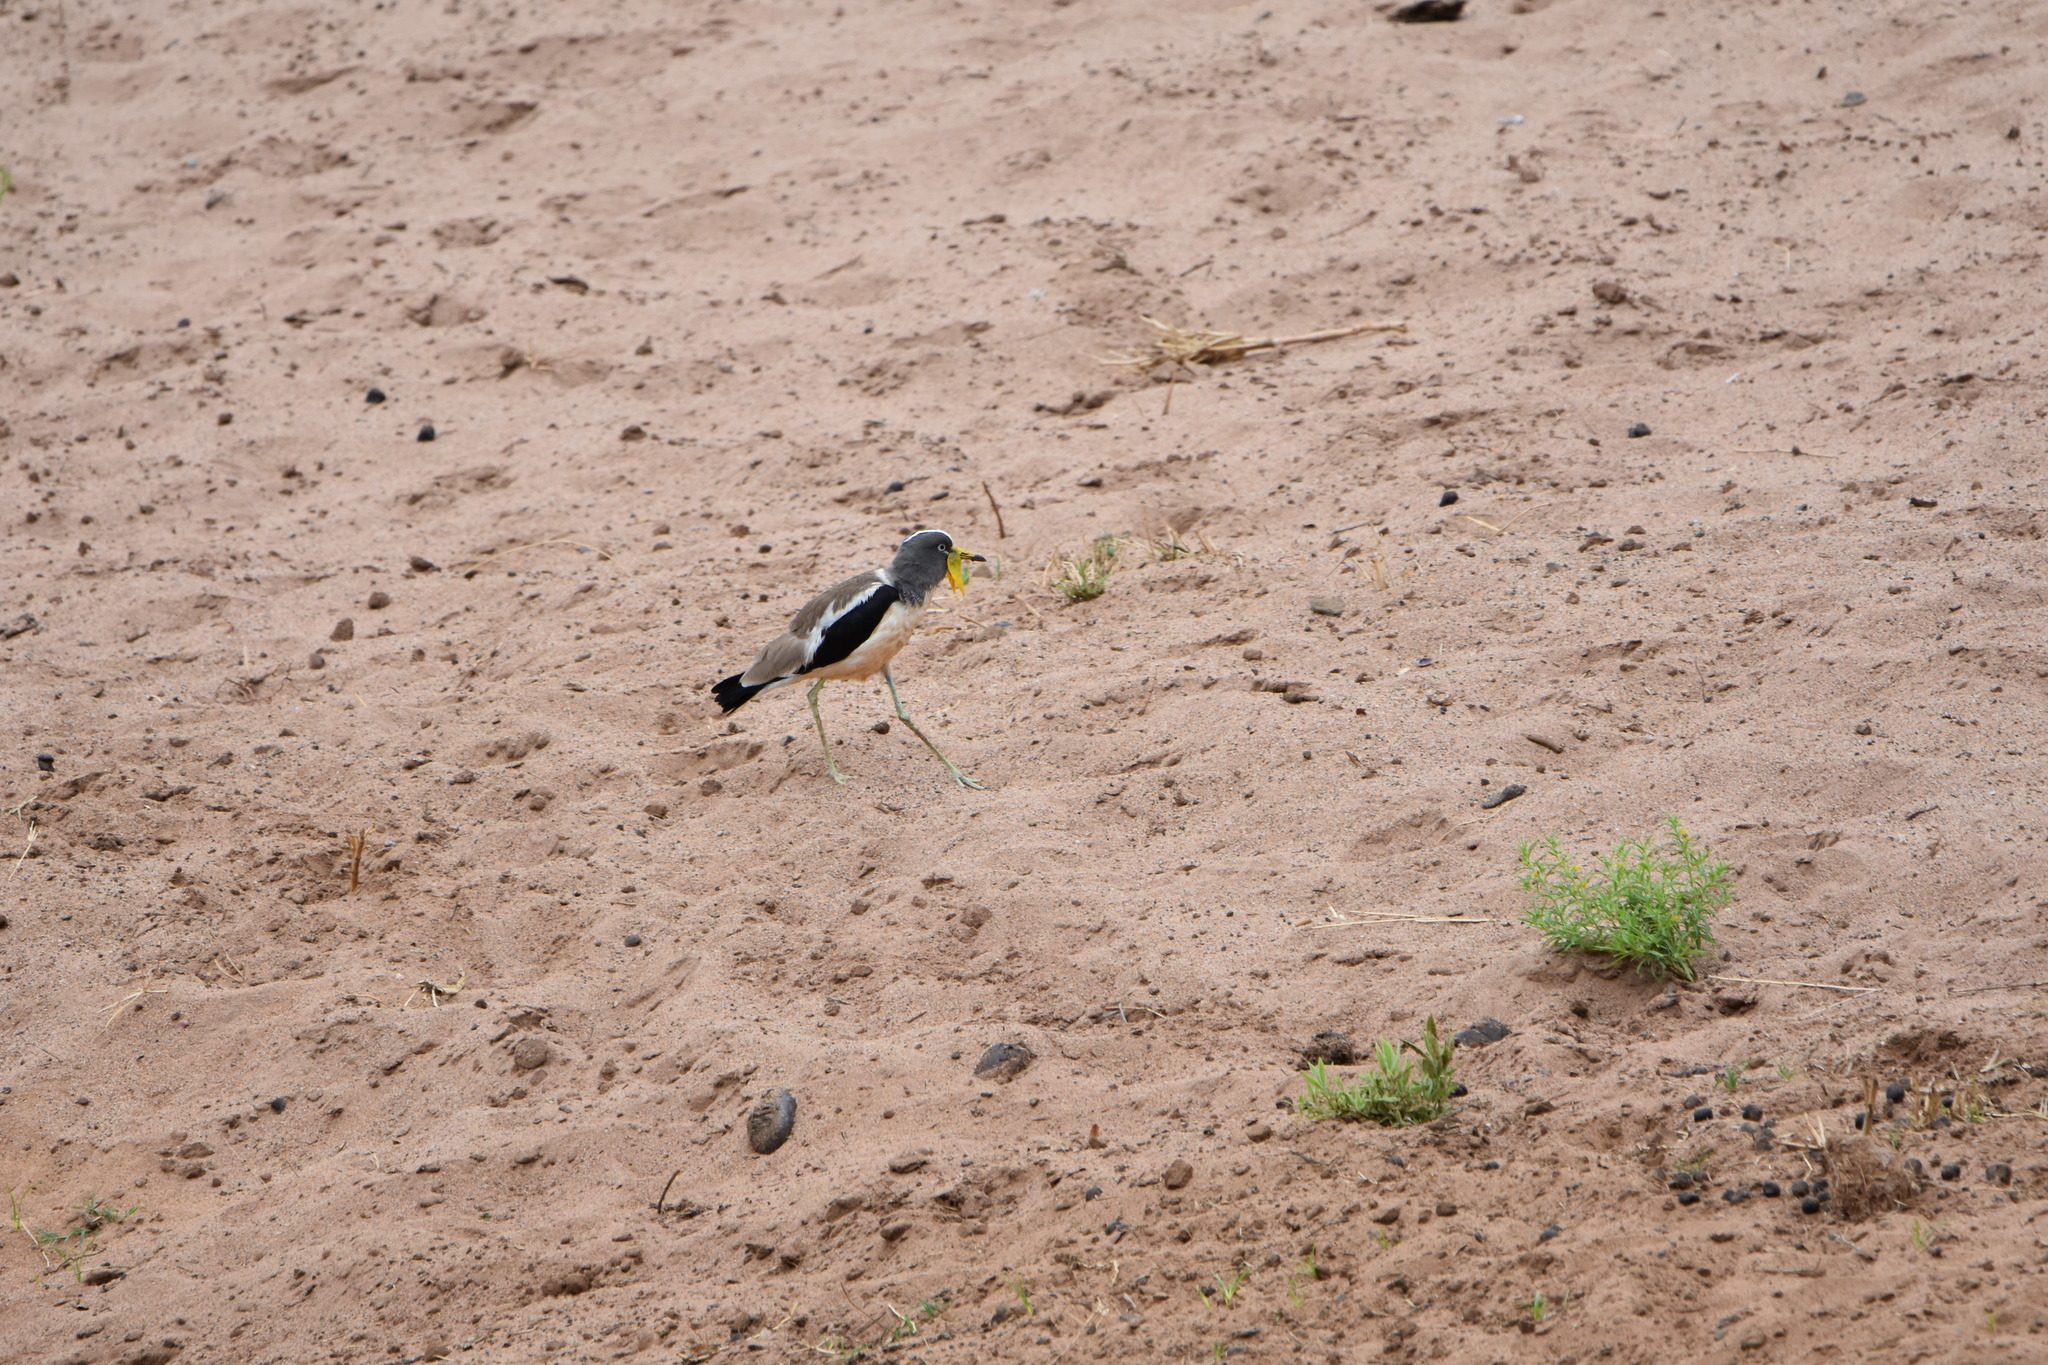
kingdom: Animalia
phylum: Chordata
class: Aves
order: Charadriiformes
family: Charadriidae
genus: Vanellus
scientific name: Vanellus albiceps
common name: White-crowned lapwing
